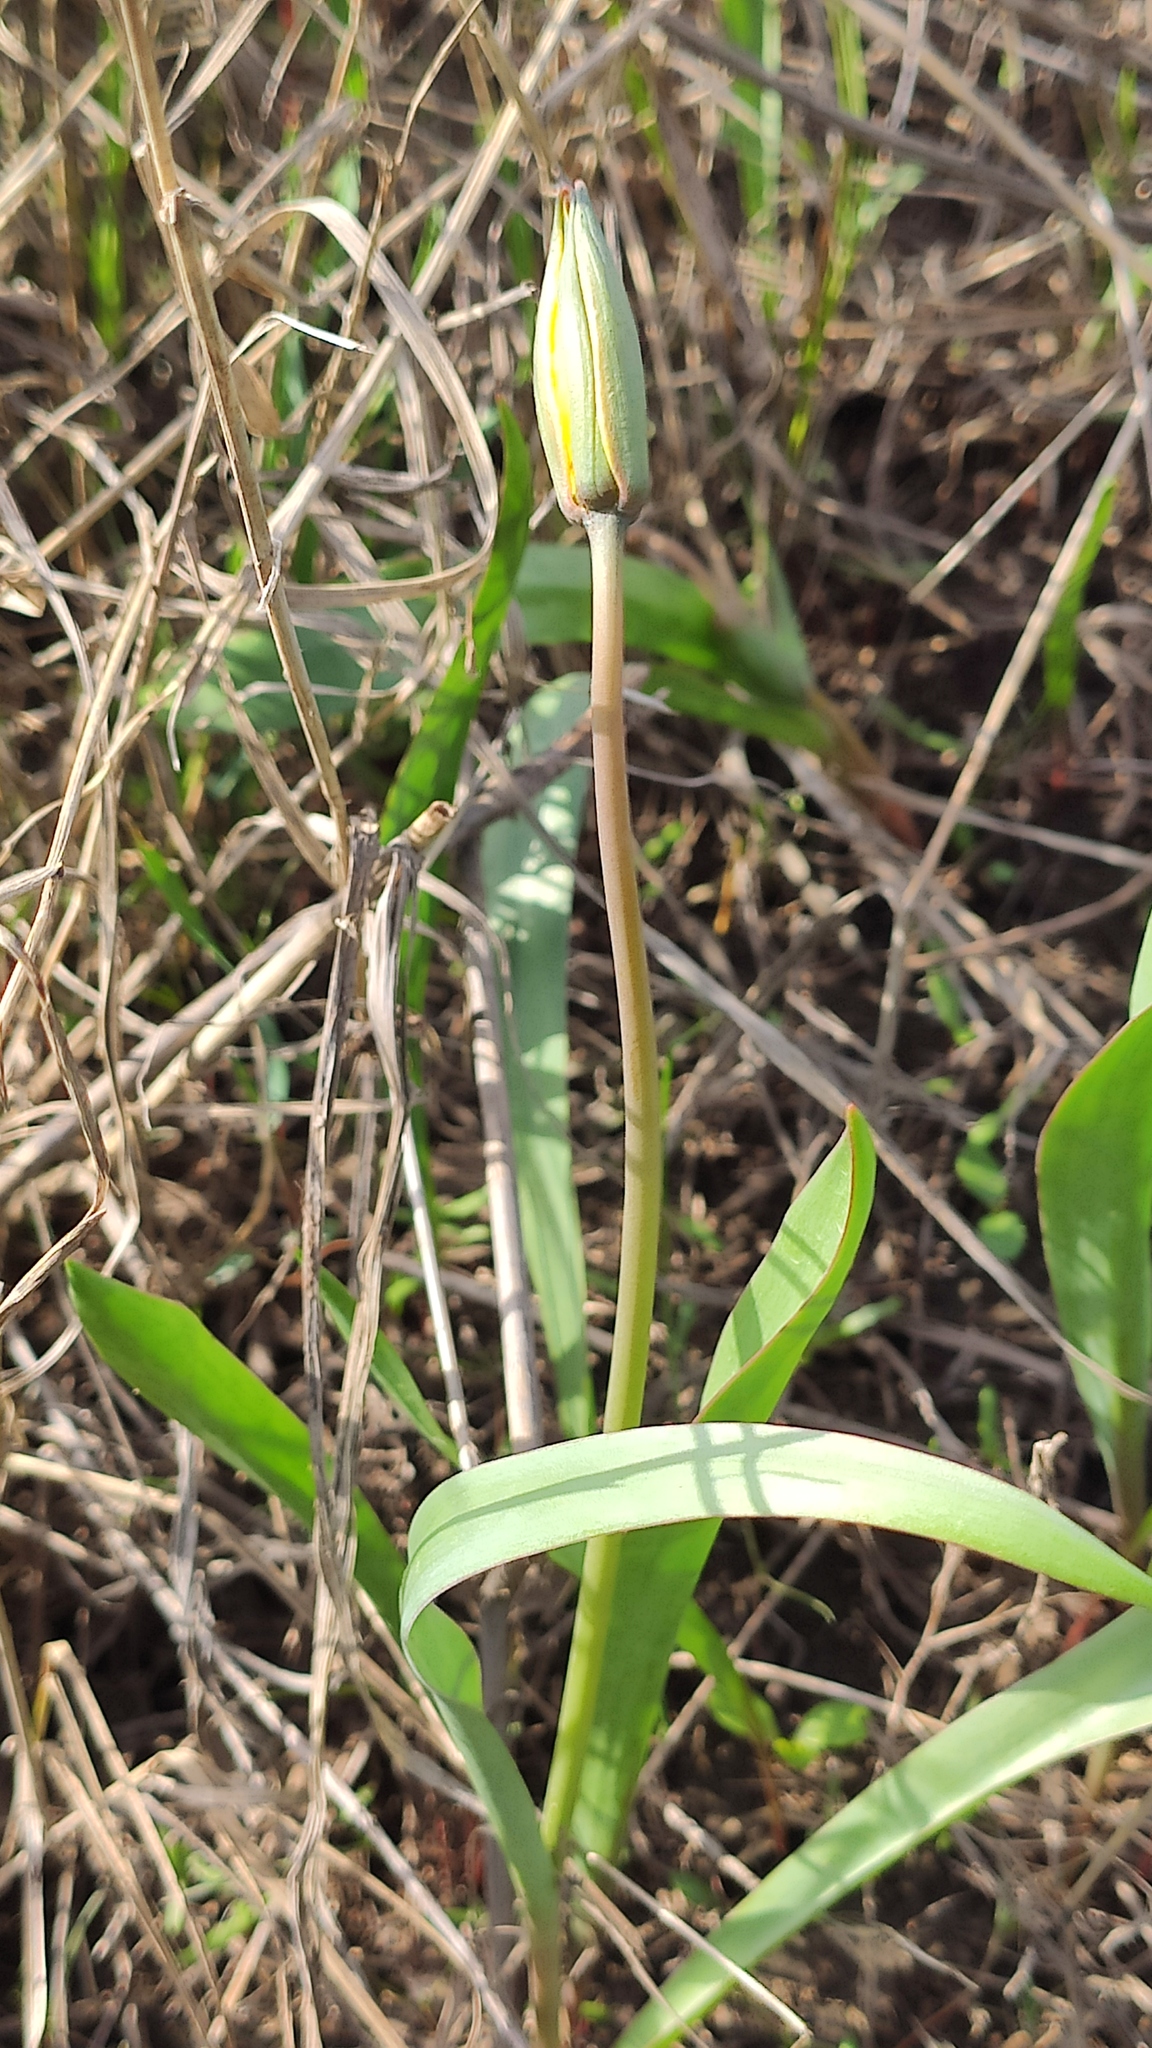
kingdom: Plantae
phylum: Tracheophyta
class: Liliopsida
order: Liliales
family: Liliaceae
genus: Tulipa
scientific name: Tulipa sylvestris
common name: Wild tulip
